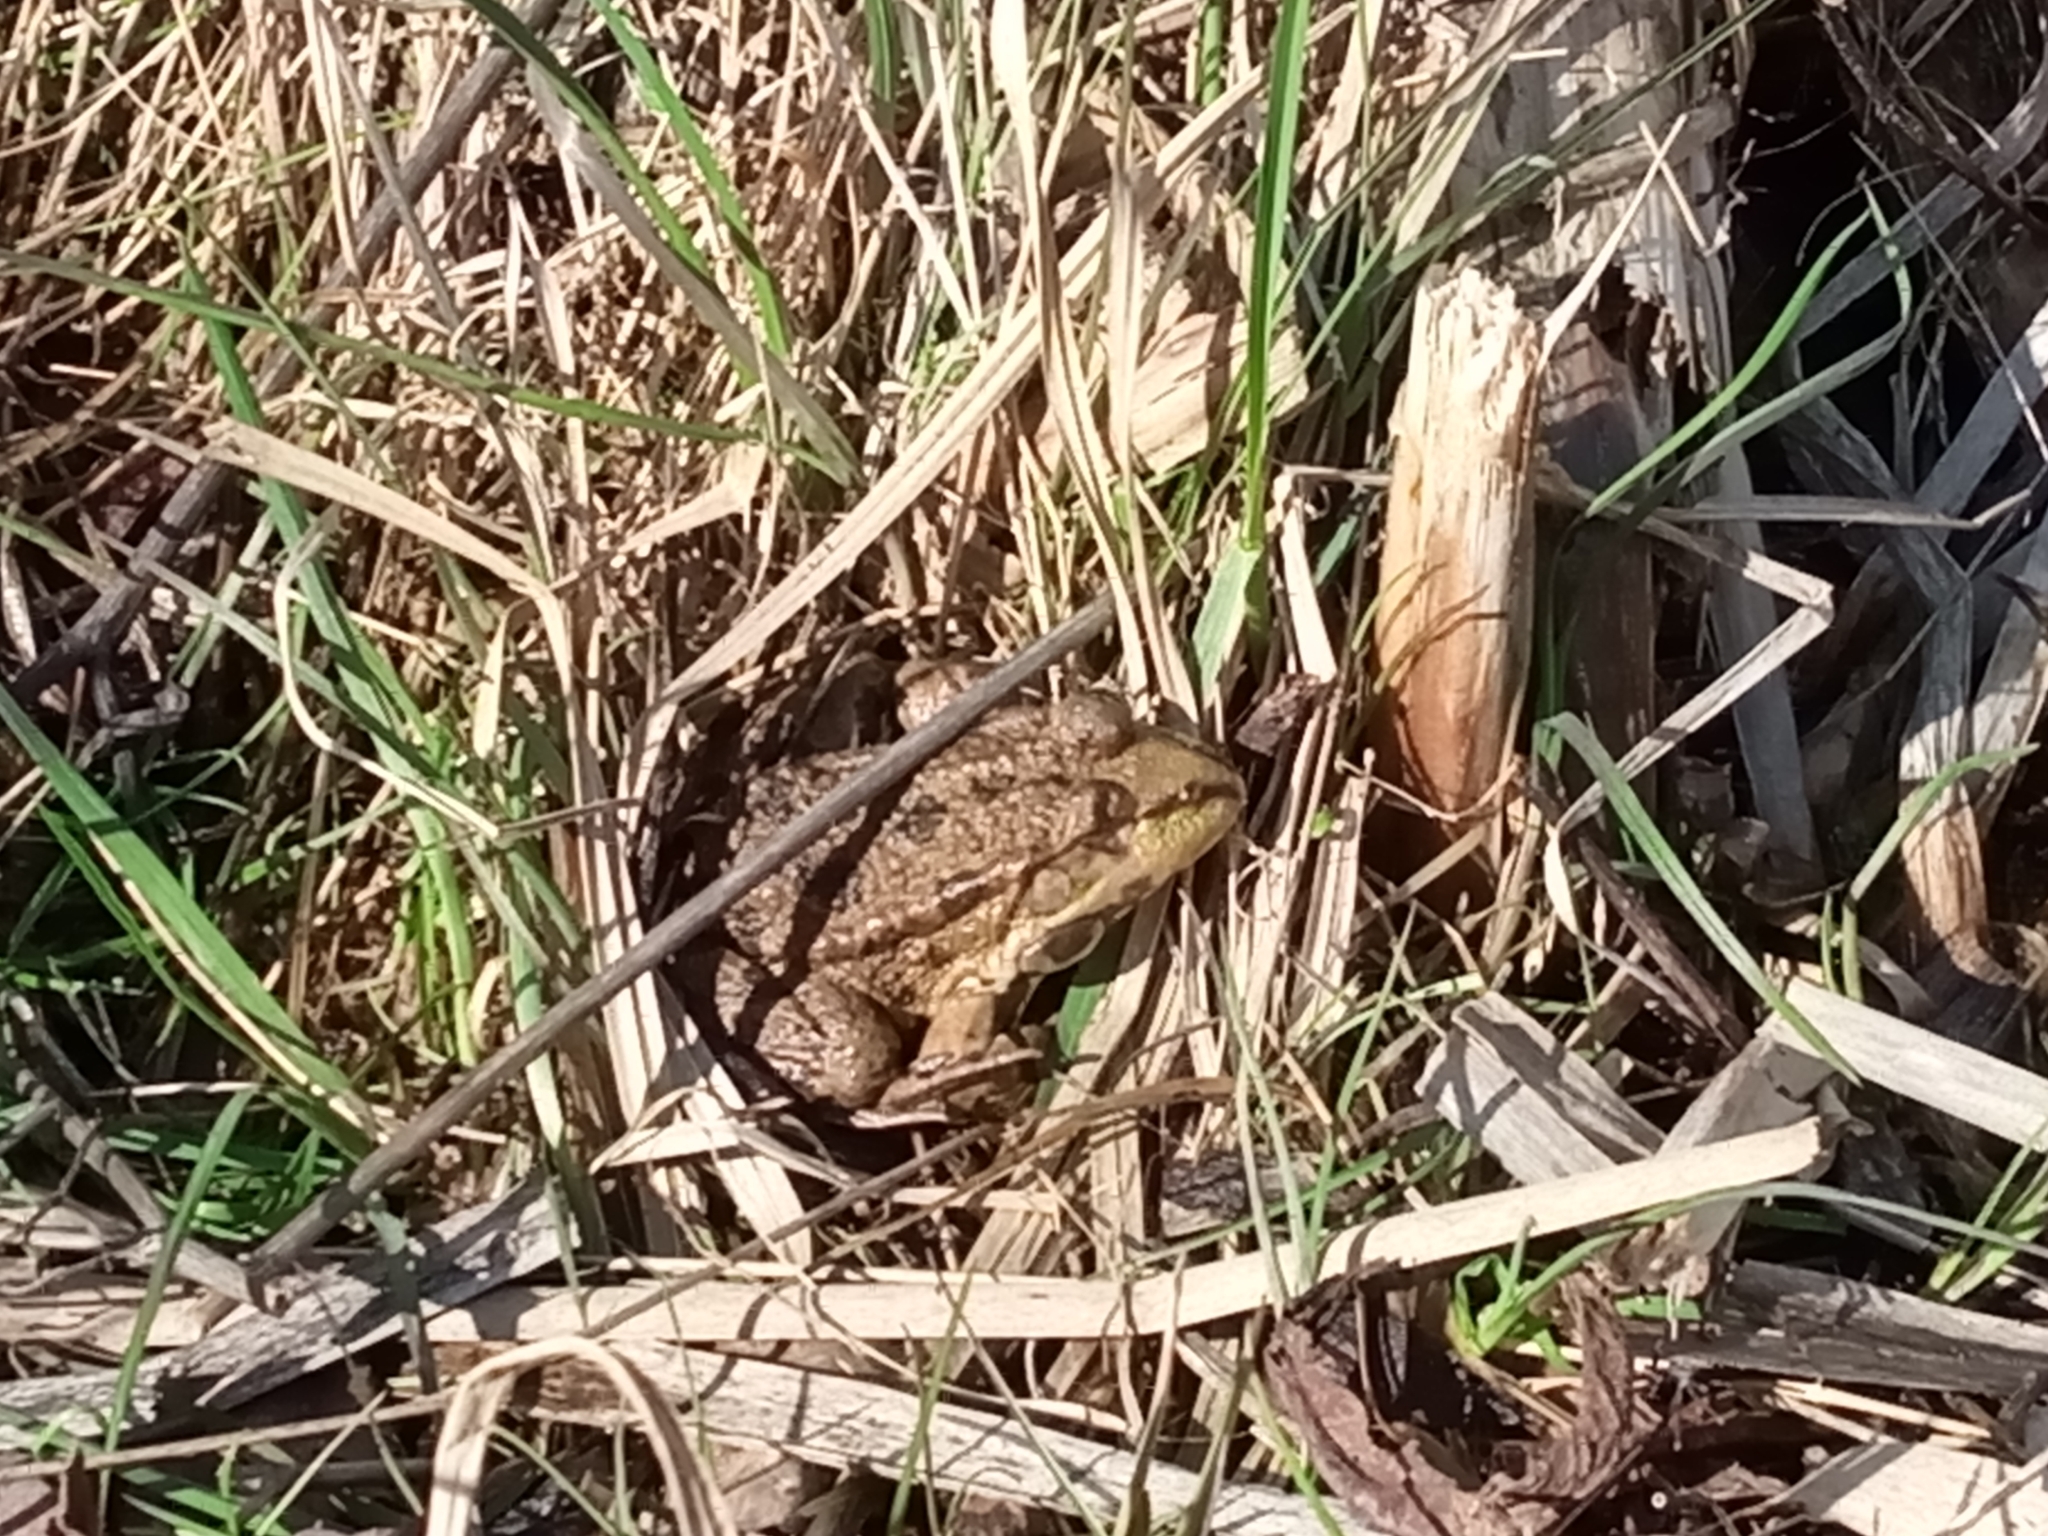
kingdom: Animalia
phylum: Chordata
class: Amphibia
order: Anura
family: Ranidae
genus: Pelophylax
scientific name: Pelophylax ridibundus
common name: Marsh frog
